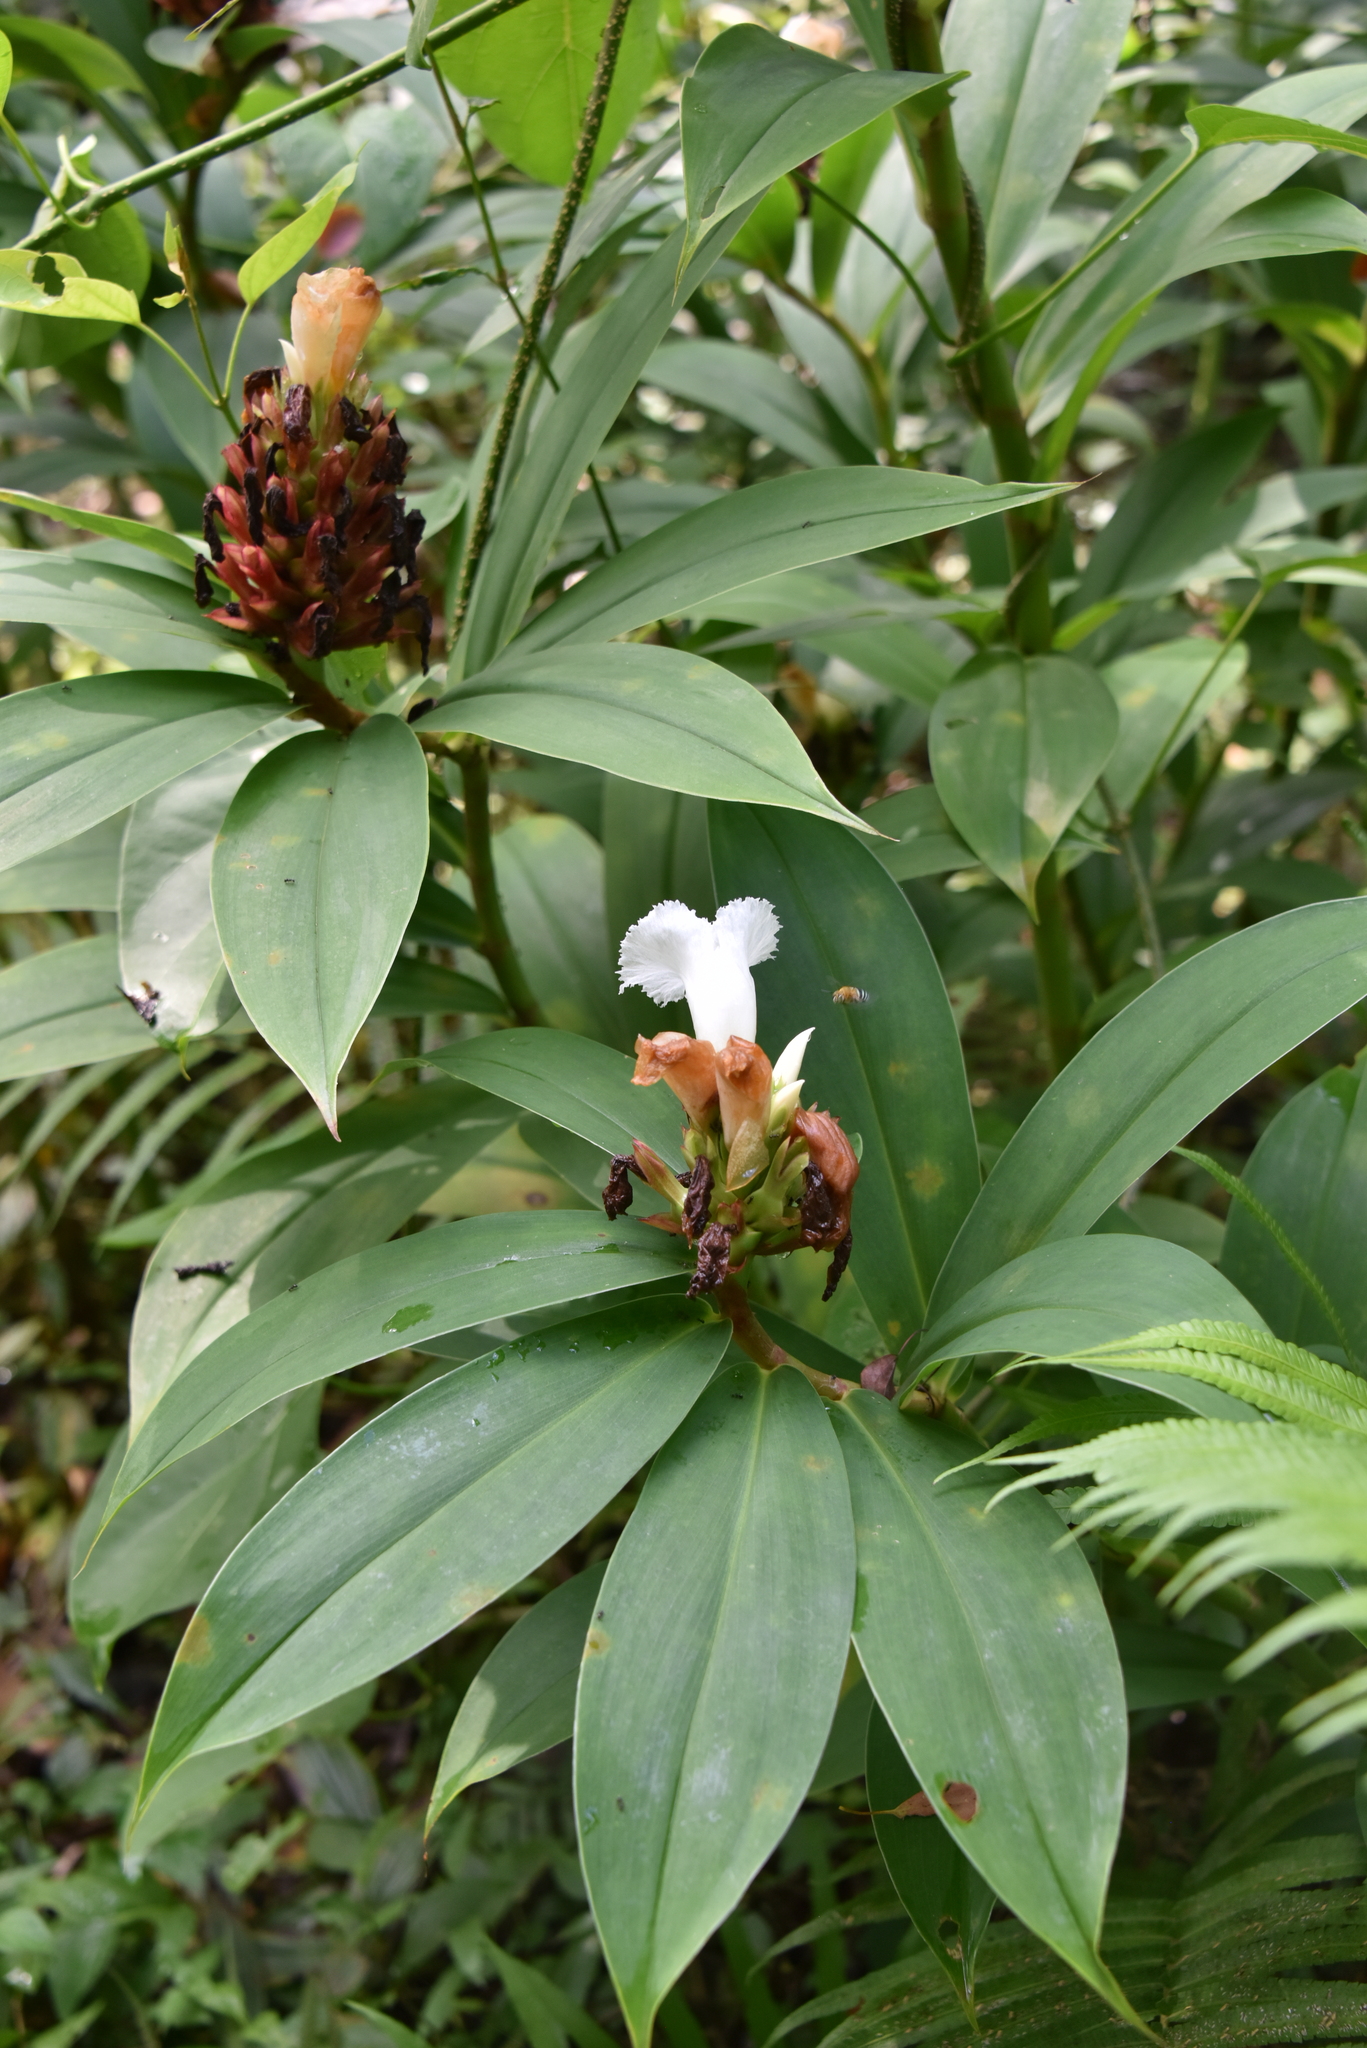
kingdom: Plantae
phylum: Tracheophyta
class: Liliopsida
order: Zingiberales
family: Costaceae
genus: Hellenia
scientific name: Hellenia speciosa
